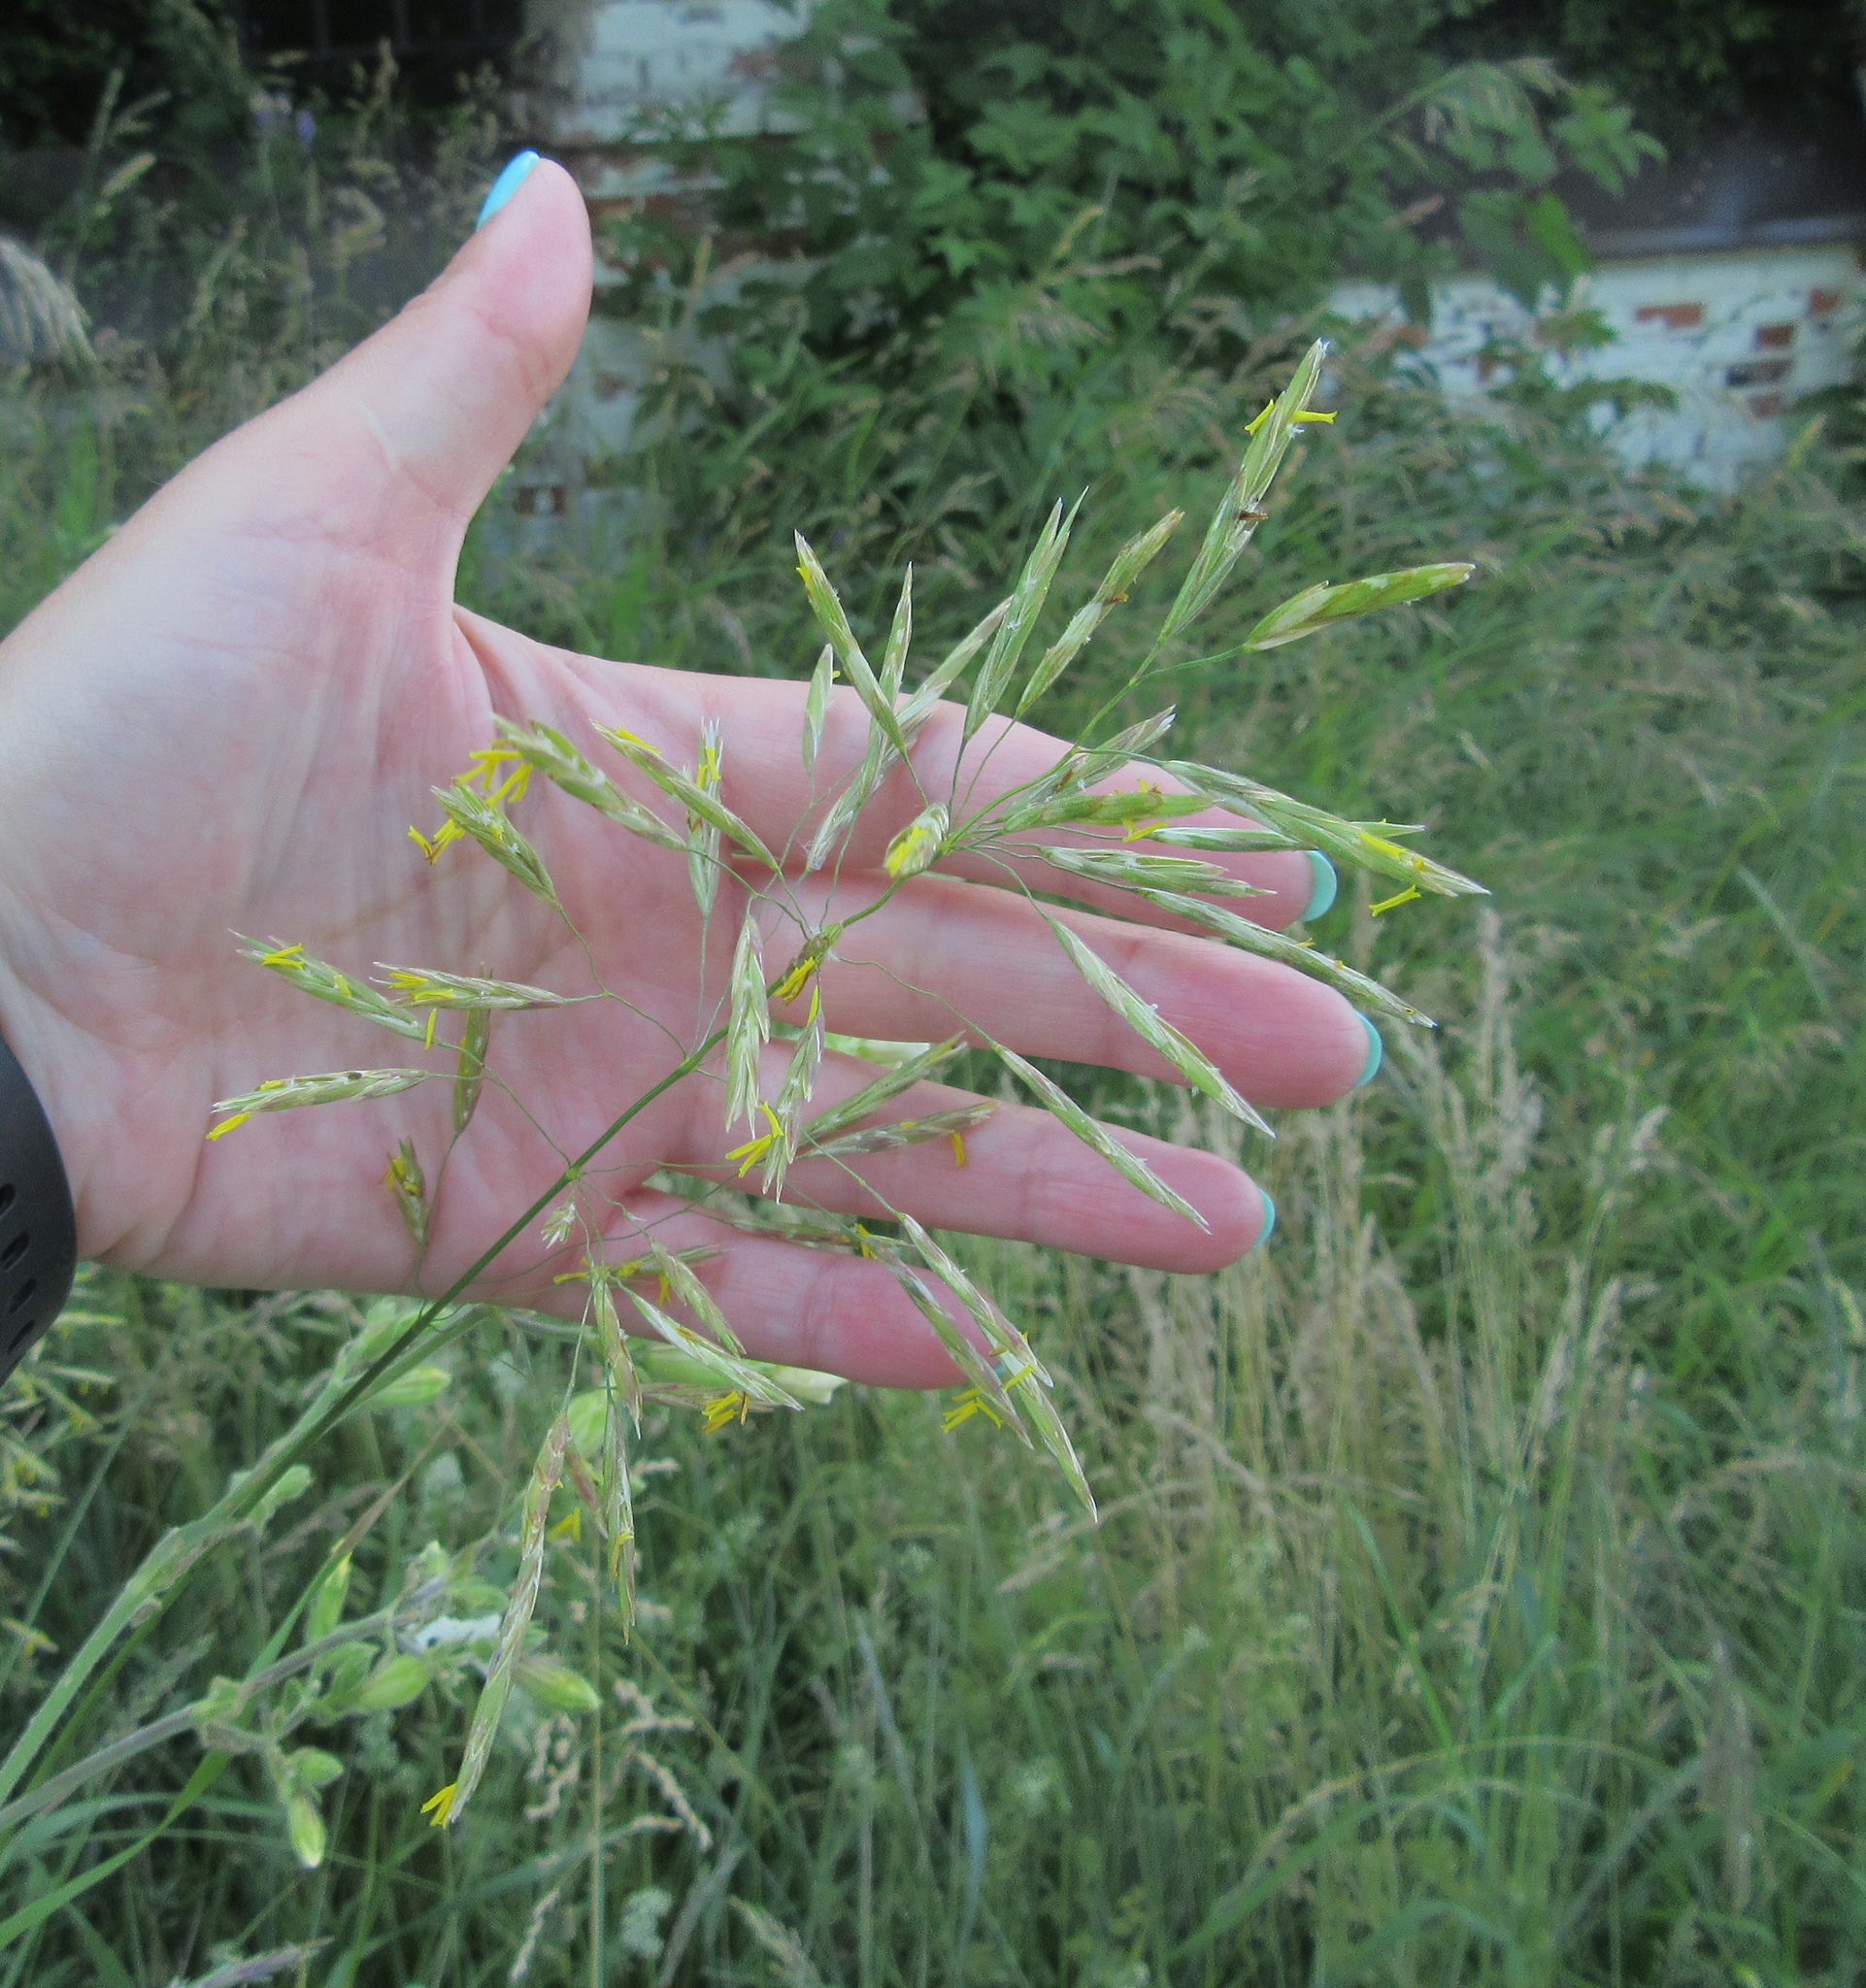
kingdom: Plantae
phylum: Tracheophyta
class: Liliopsida
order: Poales
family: Poaceae
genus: Bromus
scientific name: Bromus inermis
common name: Smooth brome
